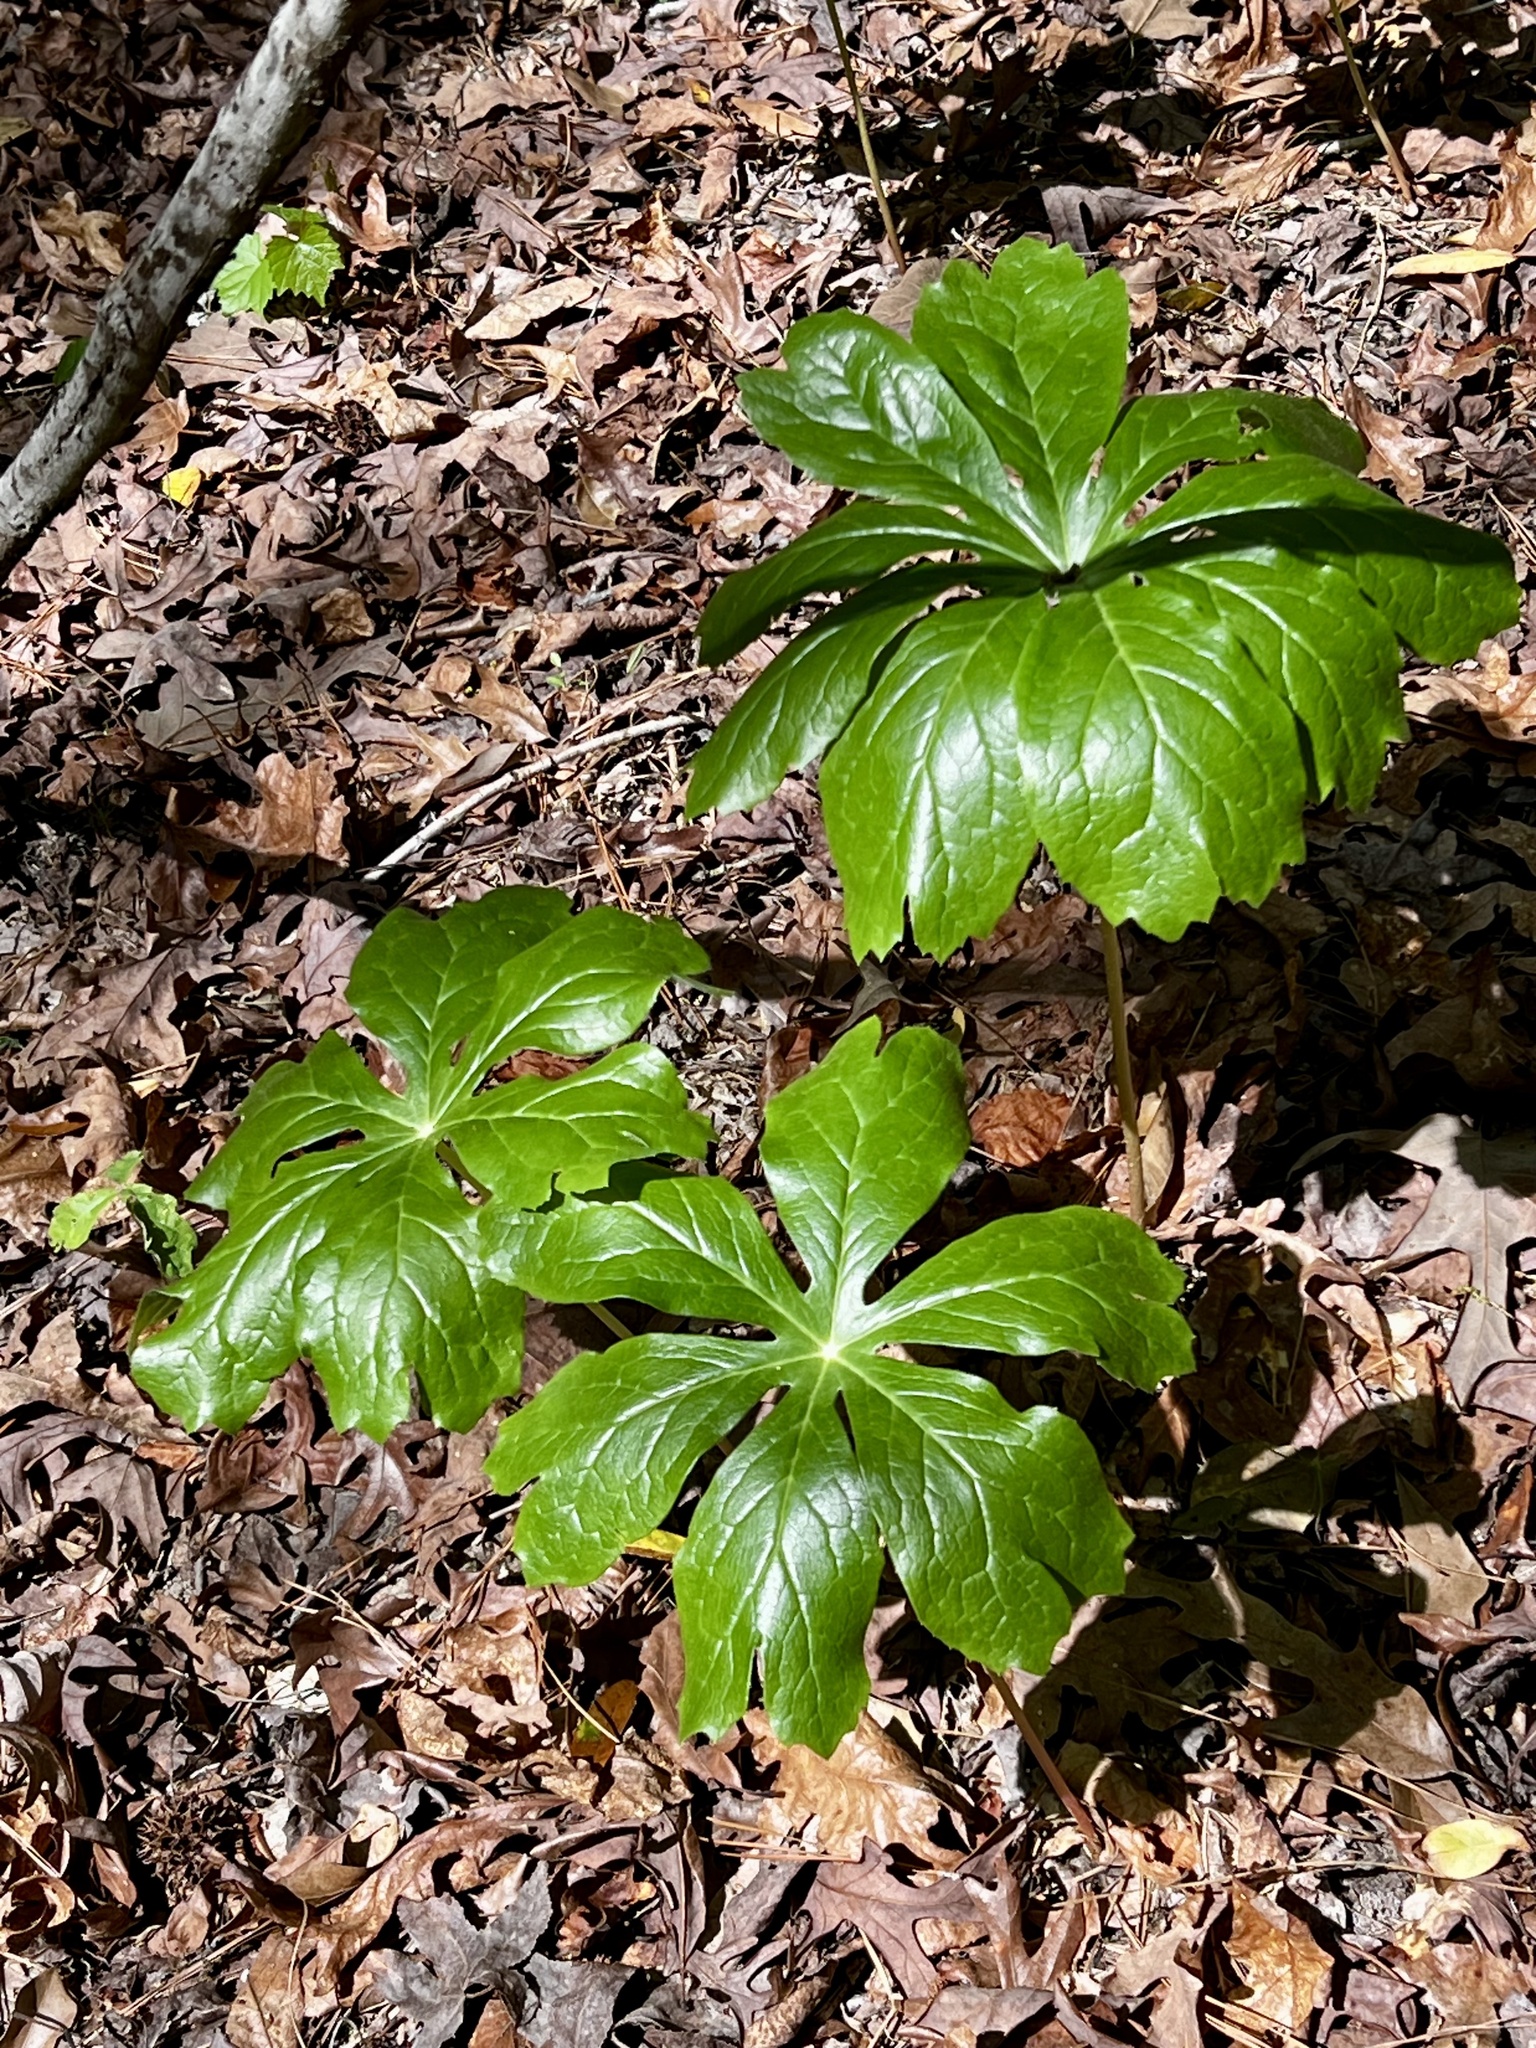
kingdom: Plantae
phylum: Tracheophyta
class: Magnoliopsida
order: Ranunculales
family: Berberidaceae
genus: Podophyllum
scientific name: Podophyllum peltatum
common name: Wild mandrake
